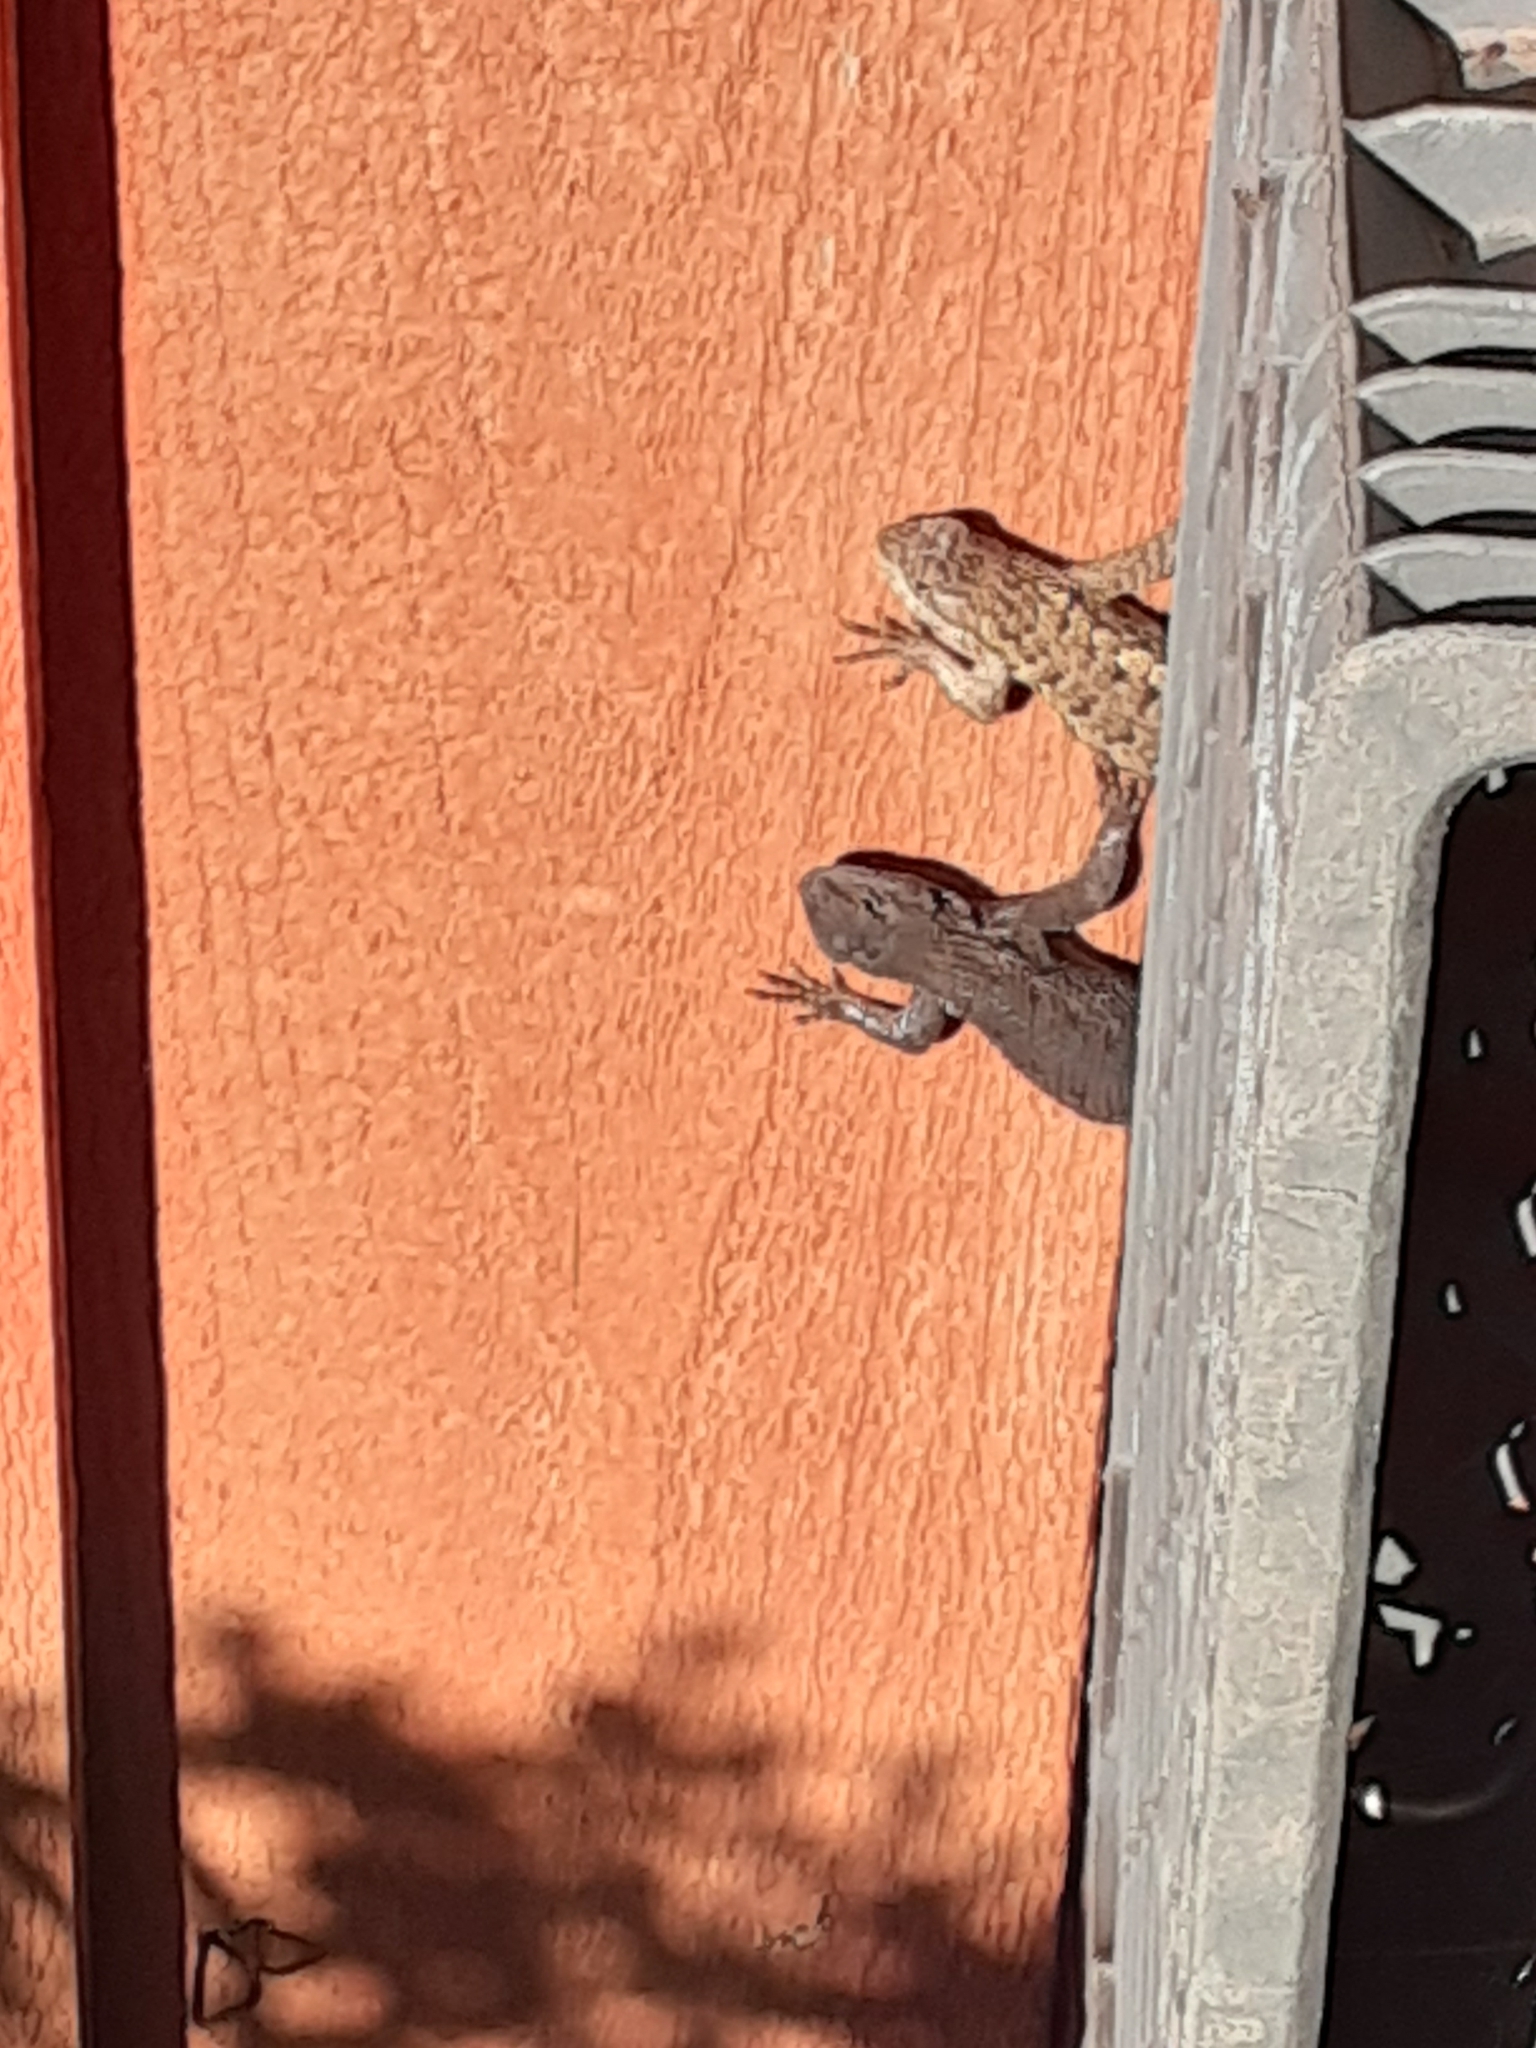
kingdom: Animalia
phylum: Chordata
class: Squamata
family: Phrynosomatidae
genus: Sceloporus
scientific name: Sceloporus occidentalis
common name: Western fence lizard
